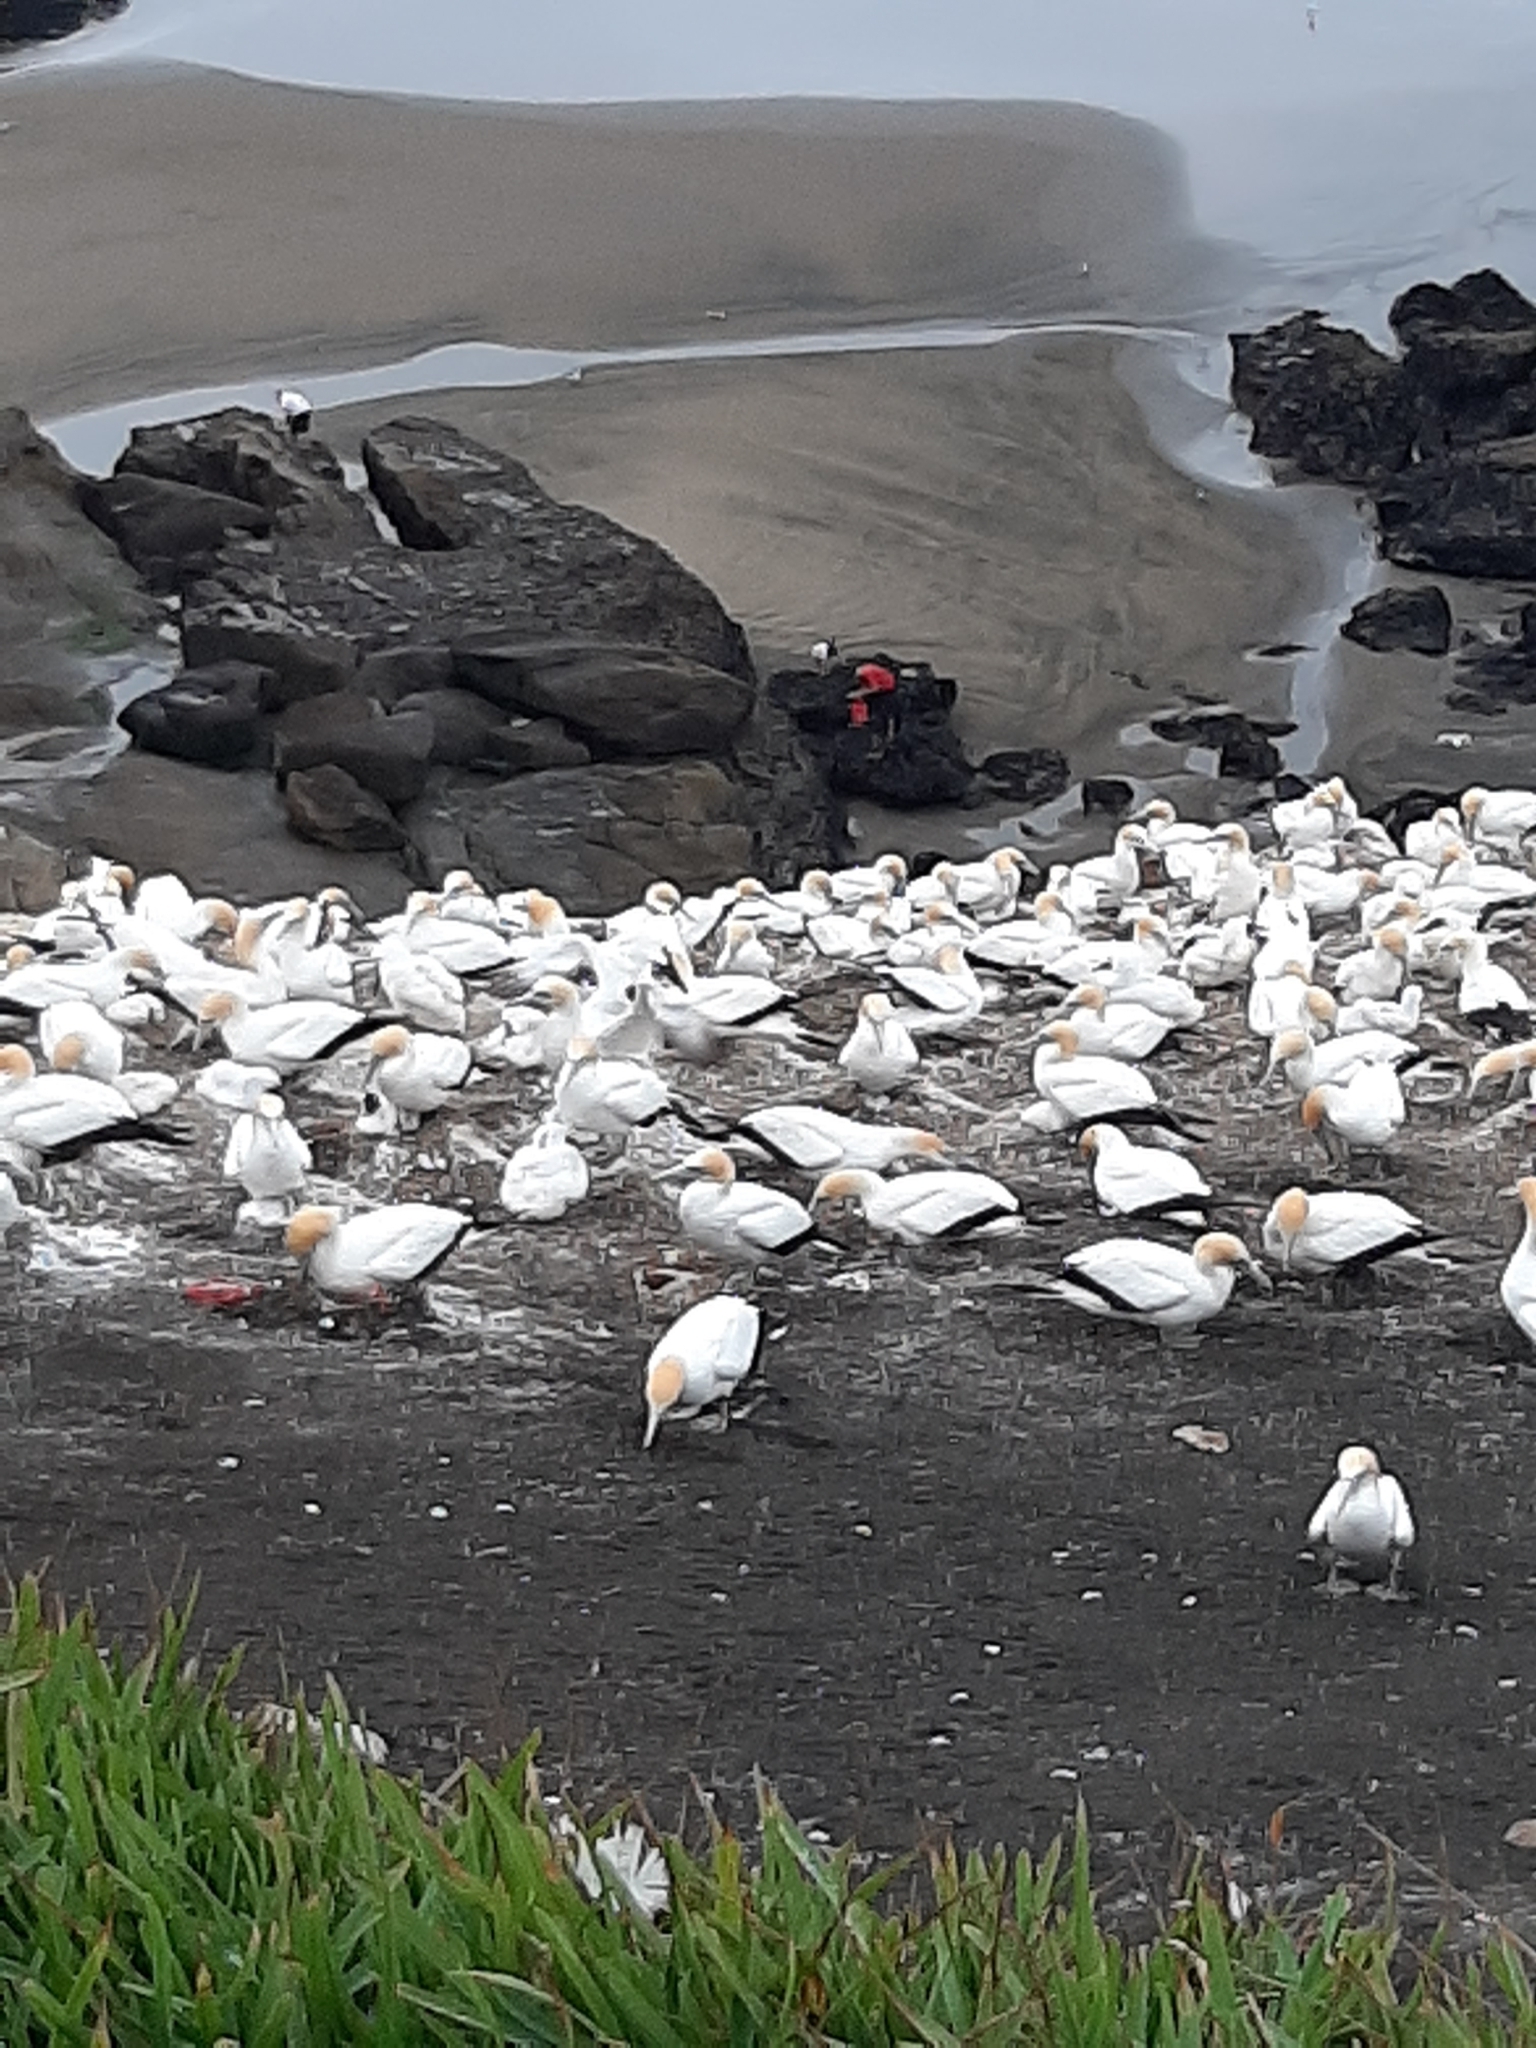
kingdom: Animalia
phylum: Chordata
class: Aves
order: Suliformes
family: Sulidae
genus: Morus
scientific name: Morus serrator
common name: Australasian gannet
